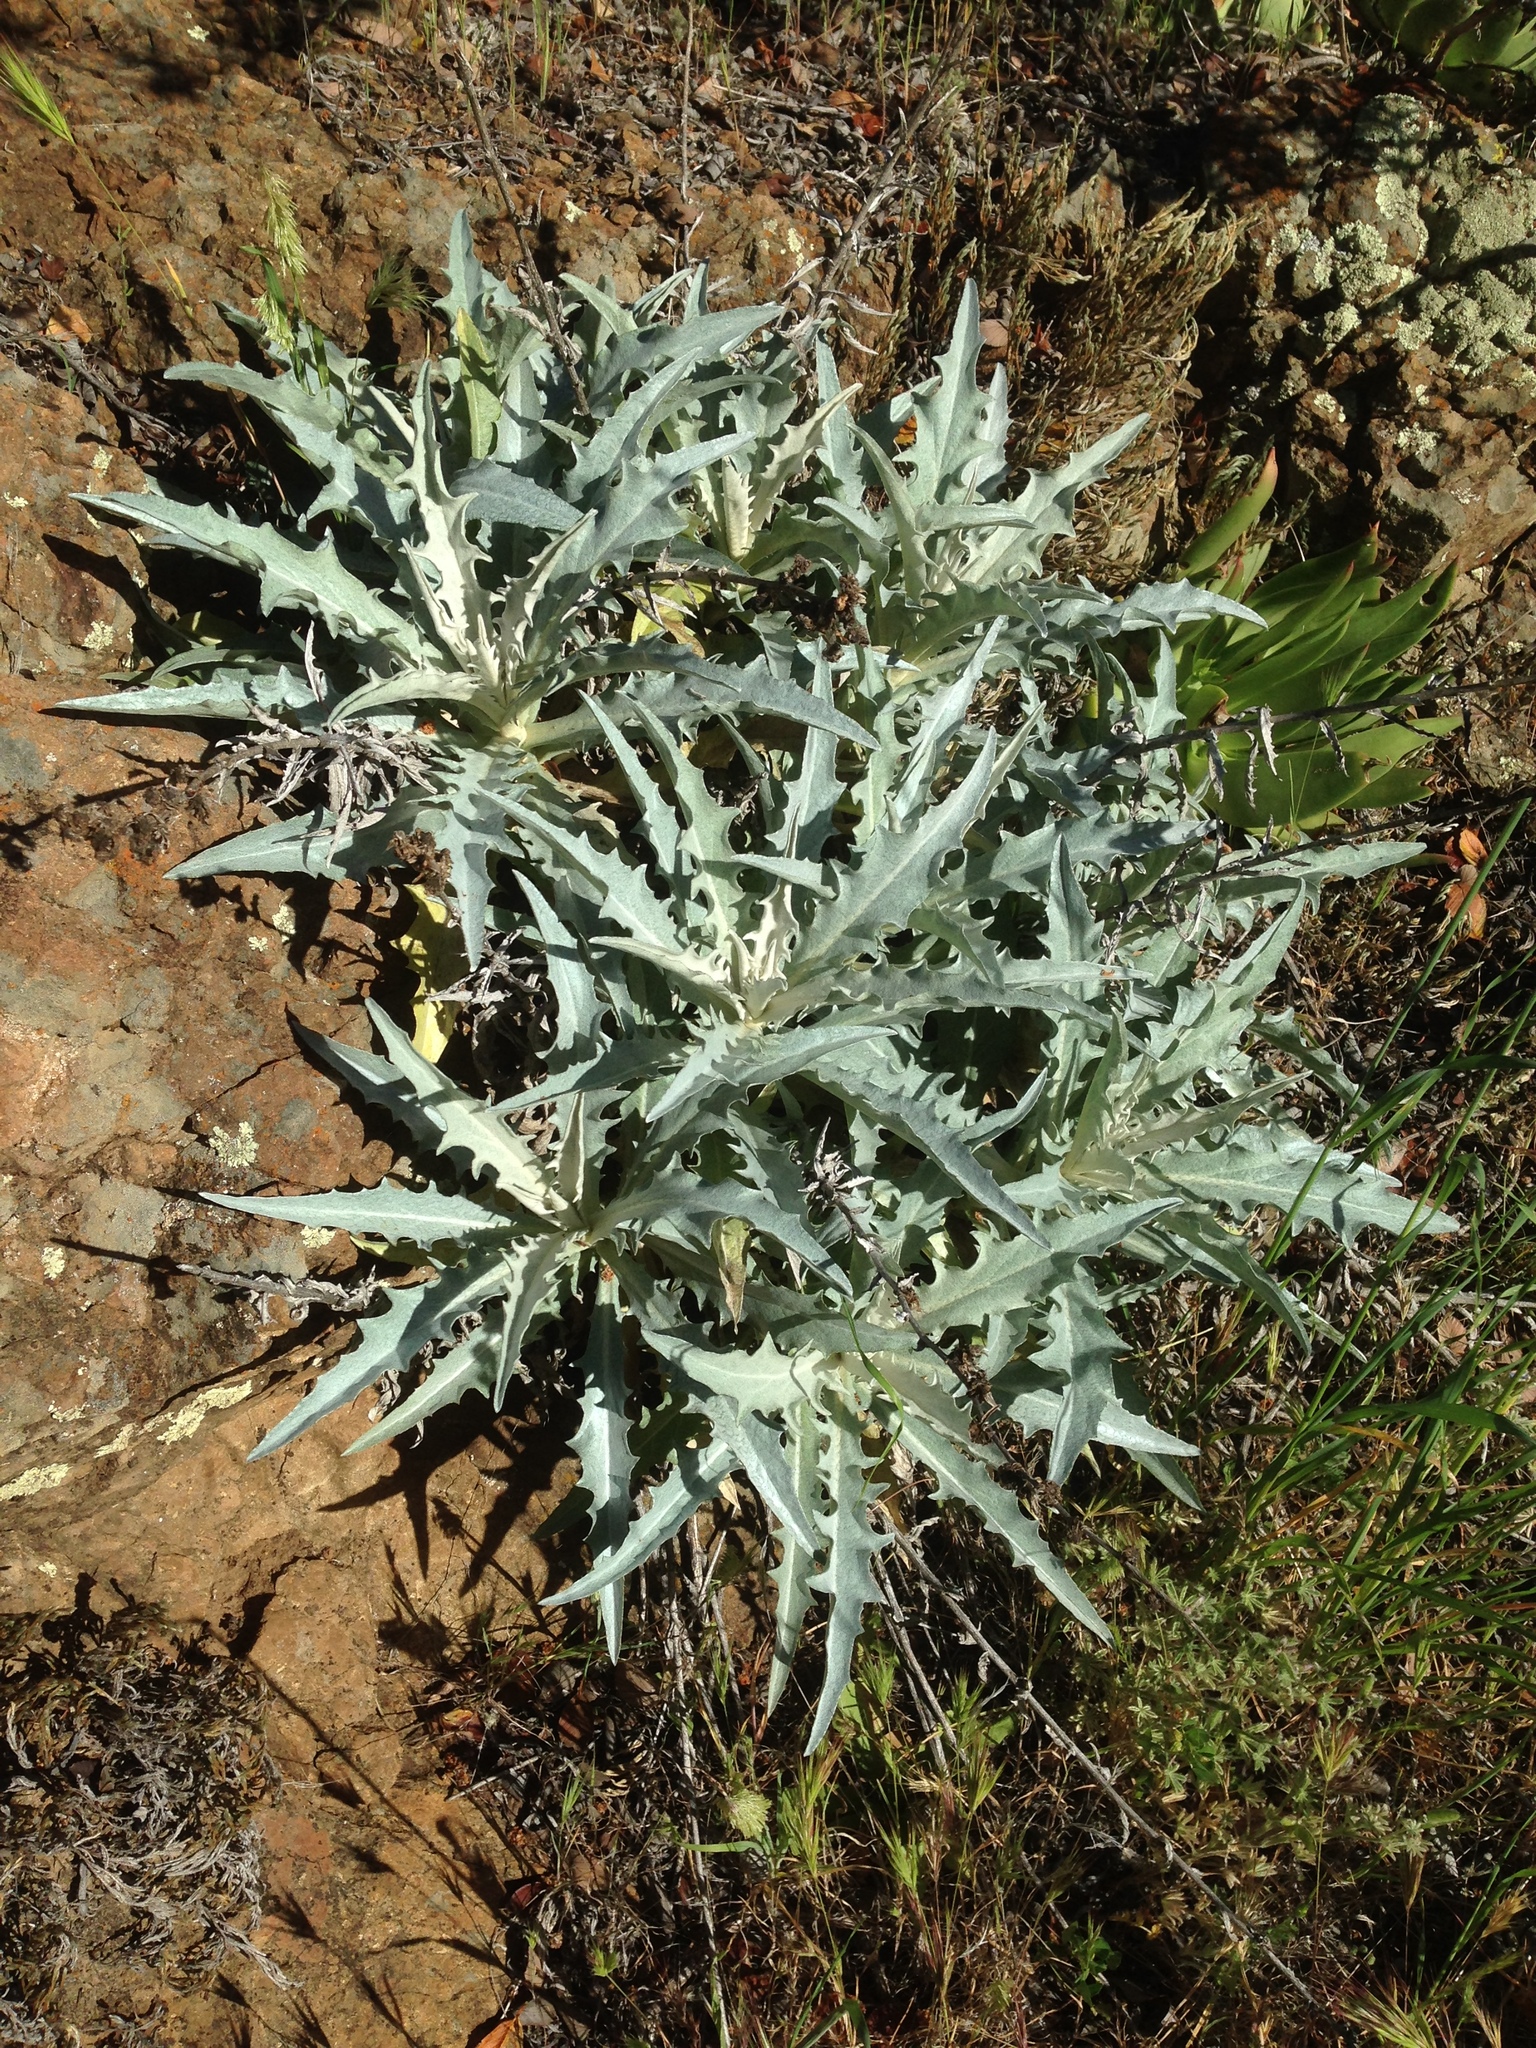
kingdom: Plantae
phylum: Tracheophyta
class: Magnoliopsida
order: Asterales
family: Asteraceae
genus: Stephanomeria
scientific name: Stephanomeria cichoriacea
